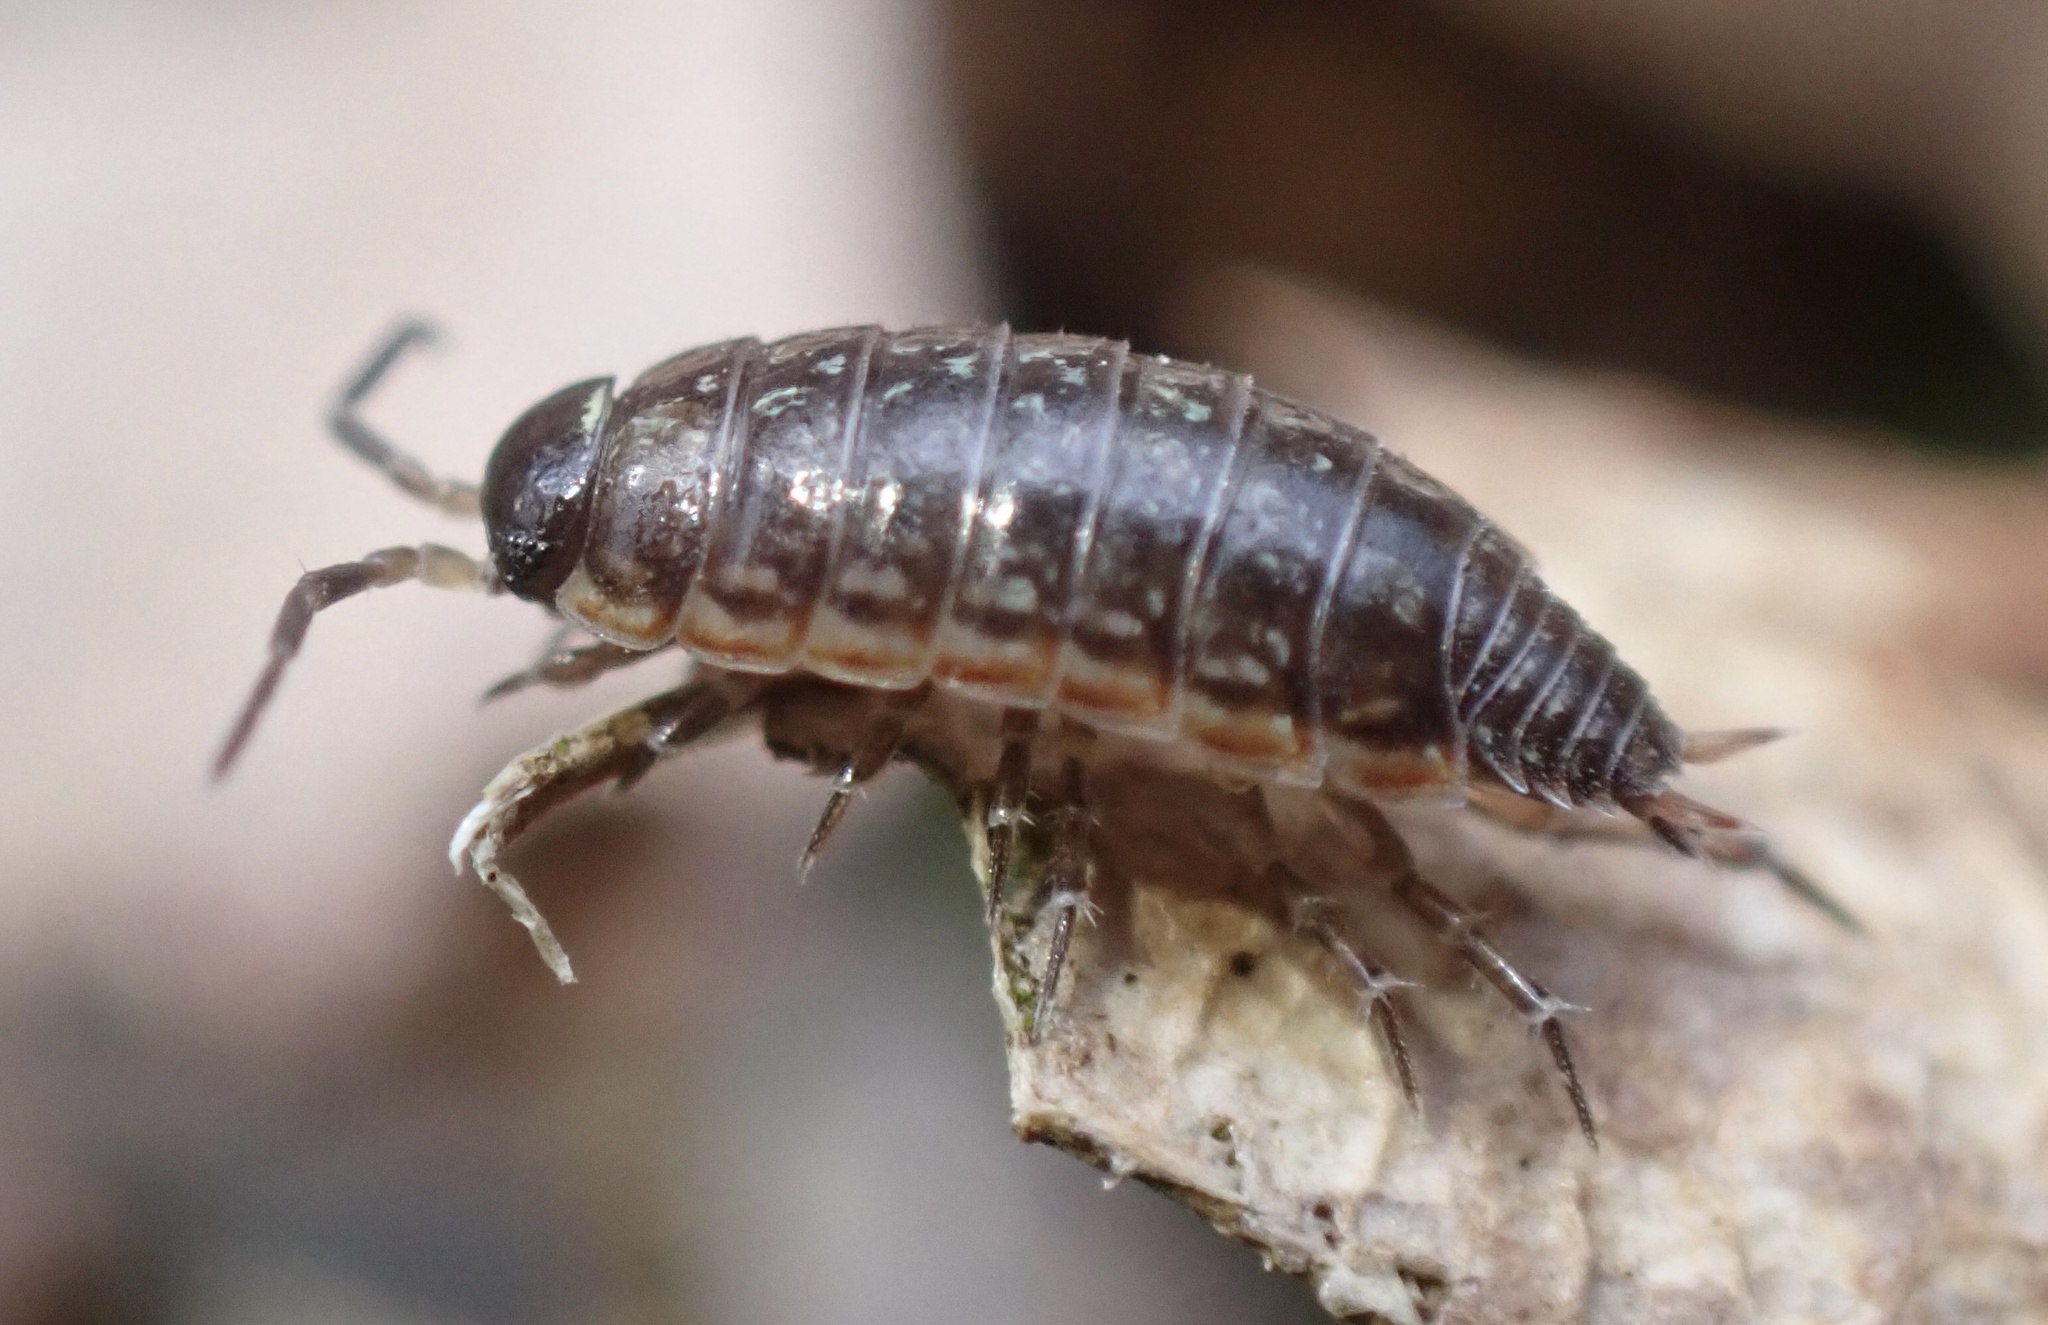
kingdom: Animalia
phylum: Arthropoda
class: Malacostraca
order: Isopoda
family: Philosciidae
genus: Philoscia
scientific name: Philoscia muscorum
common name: Common striped woodlouse
